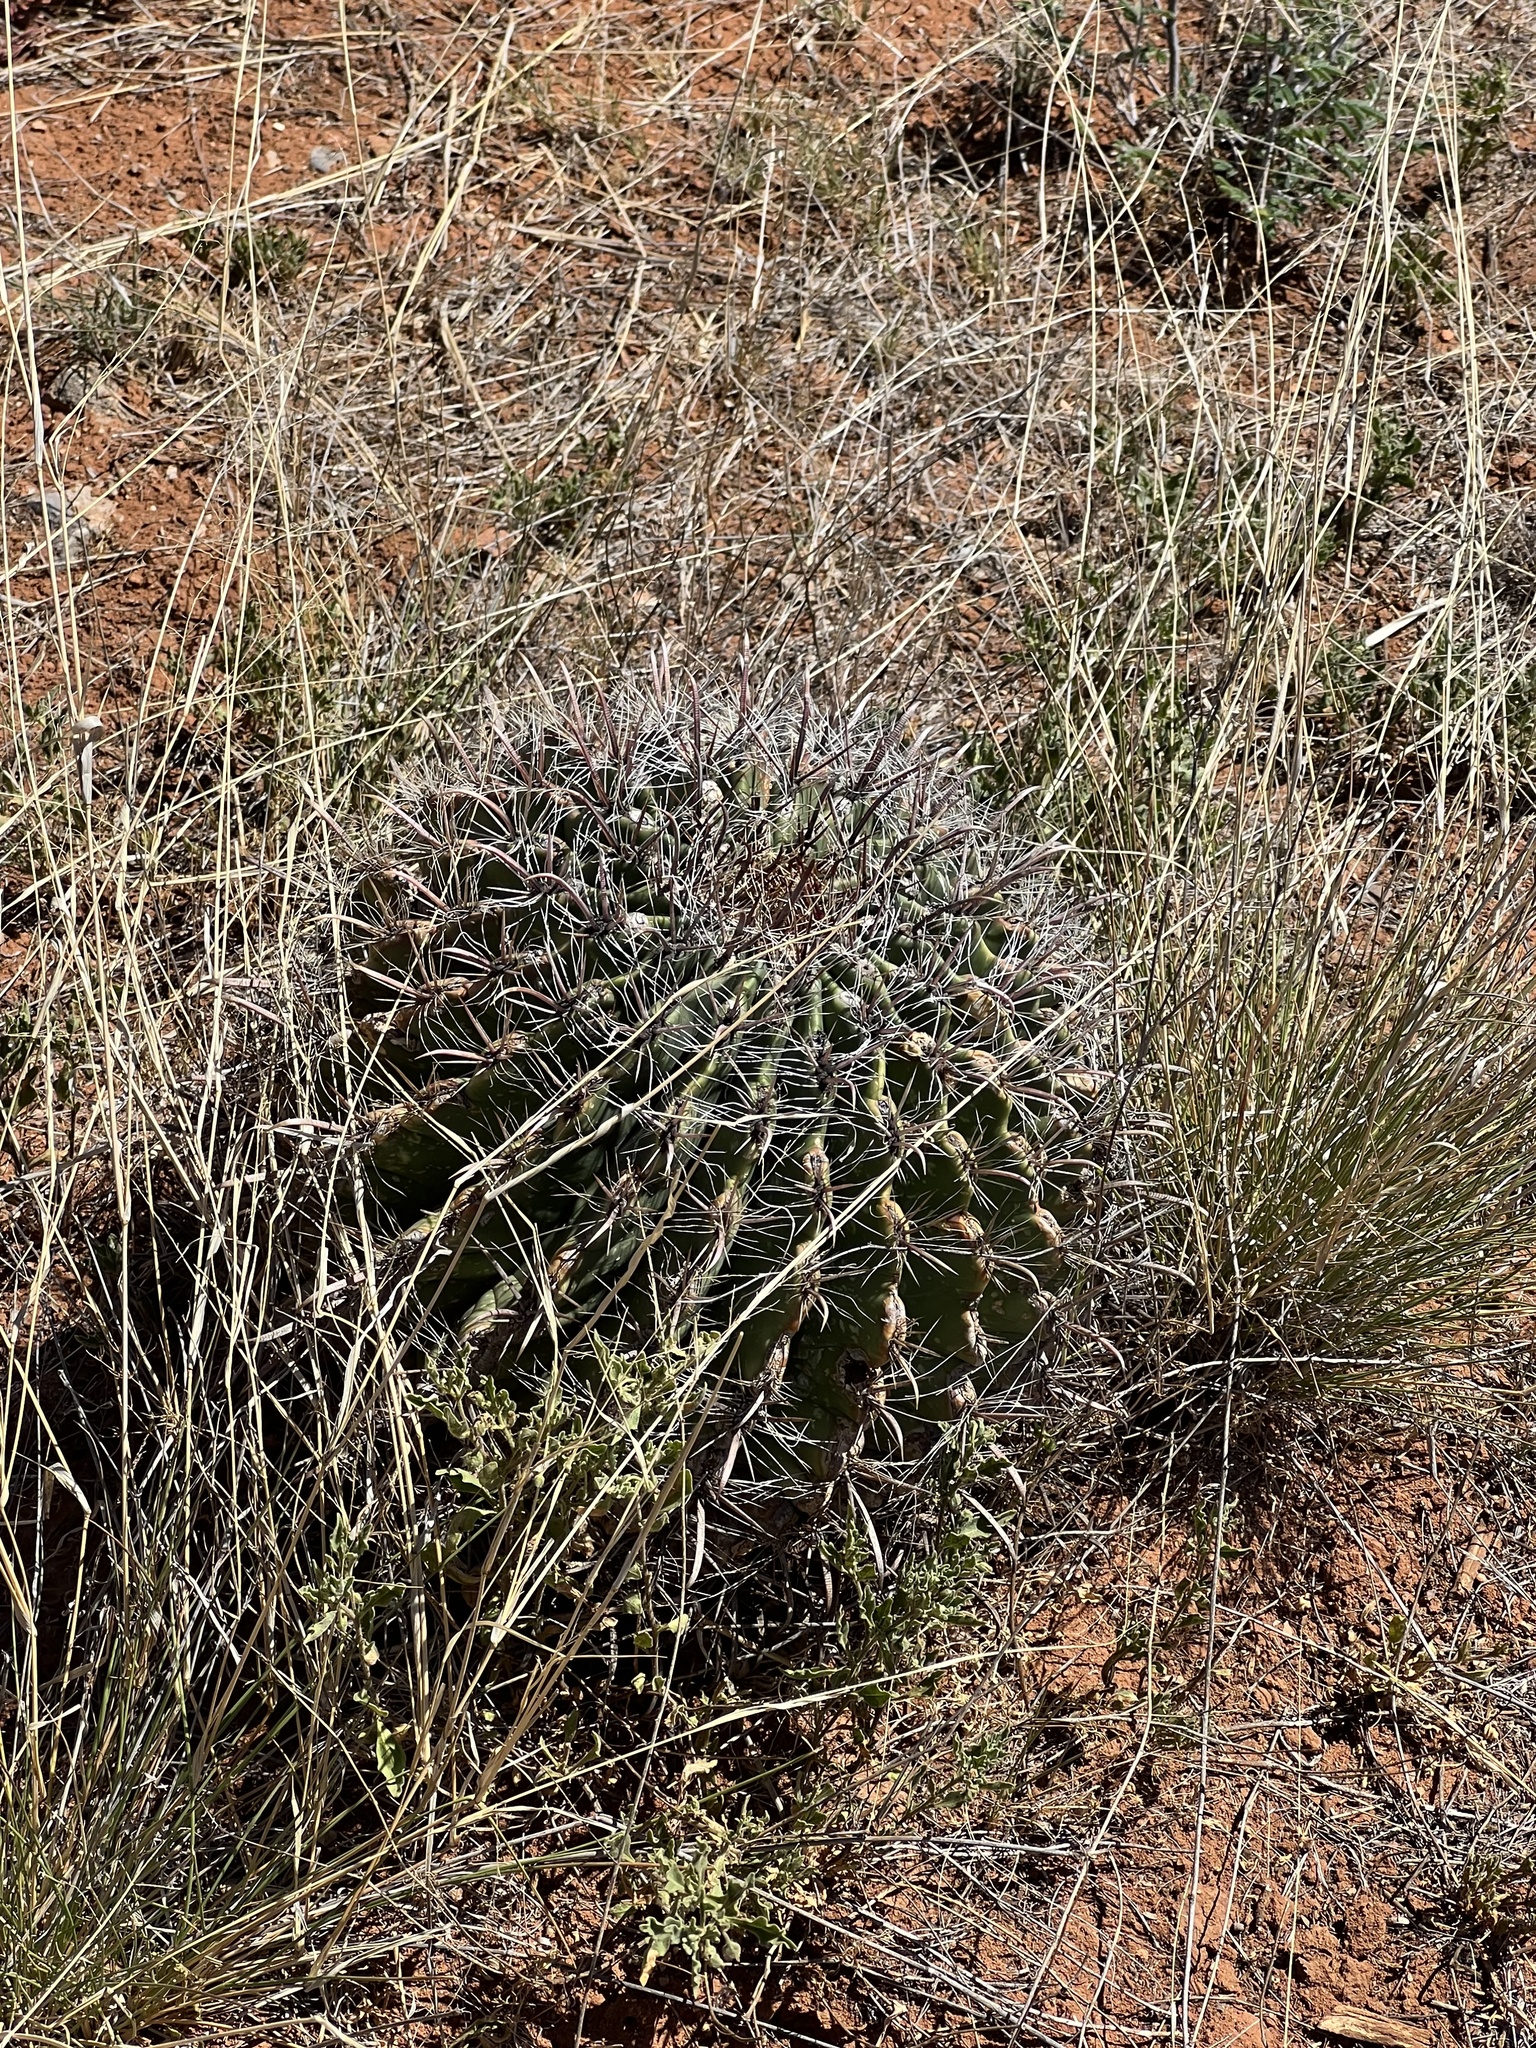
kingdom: Plantae
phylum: Tracheophyta
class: Magnoliopsida
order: Caryophyllales
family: Cactaceae
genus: Ferocactus
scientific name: Ferocactus wislizeni
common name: Candy barrel cactus
